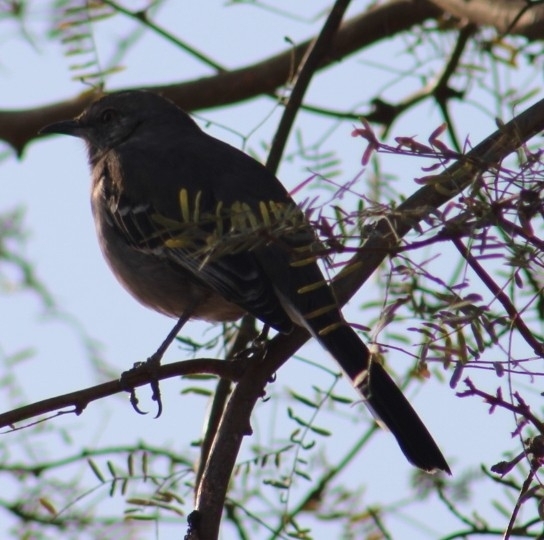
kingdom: Animalia
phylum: Chordata
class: Aves
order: Passeriformes
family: Mimidae
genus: Mimus
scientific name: Mimus polyglottos
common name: Northern mockingbird
